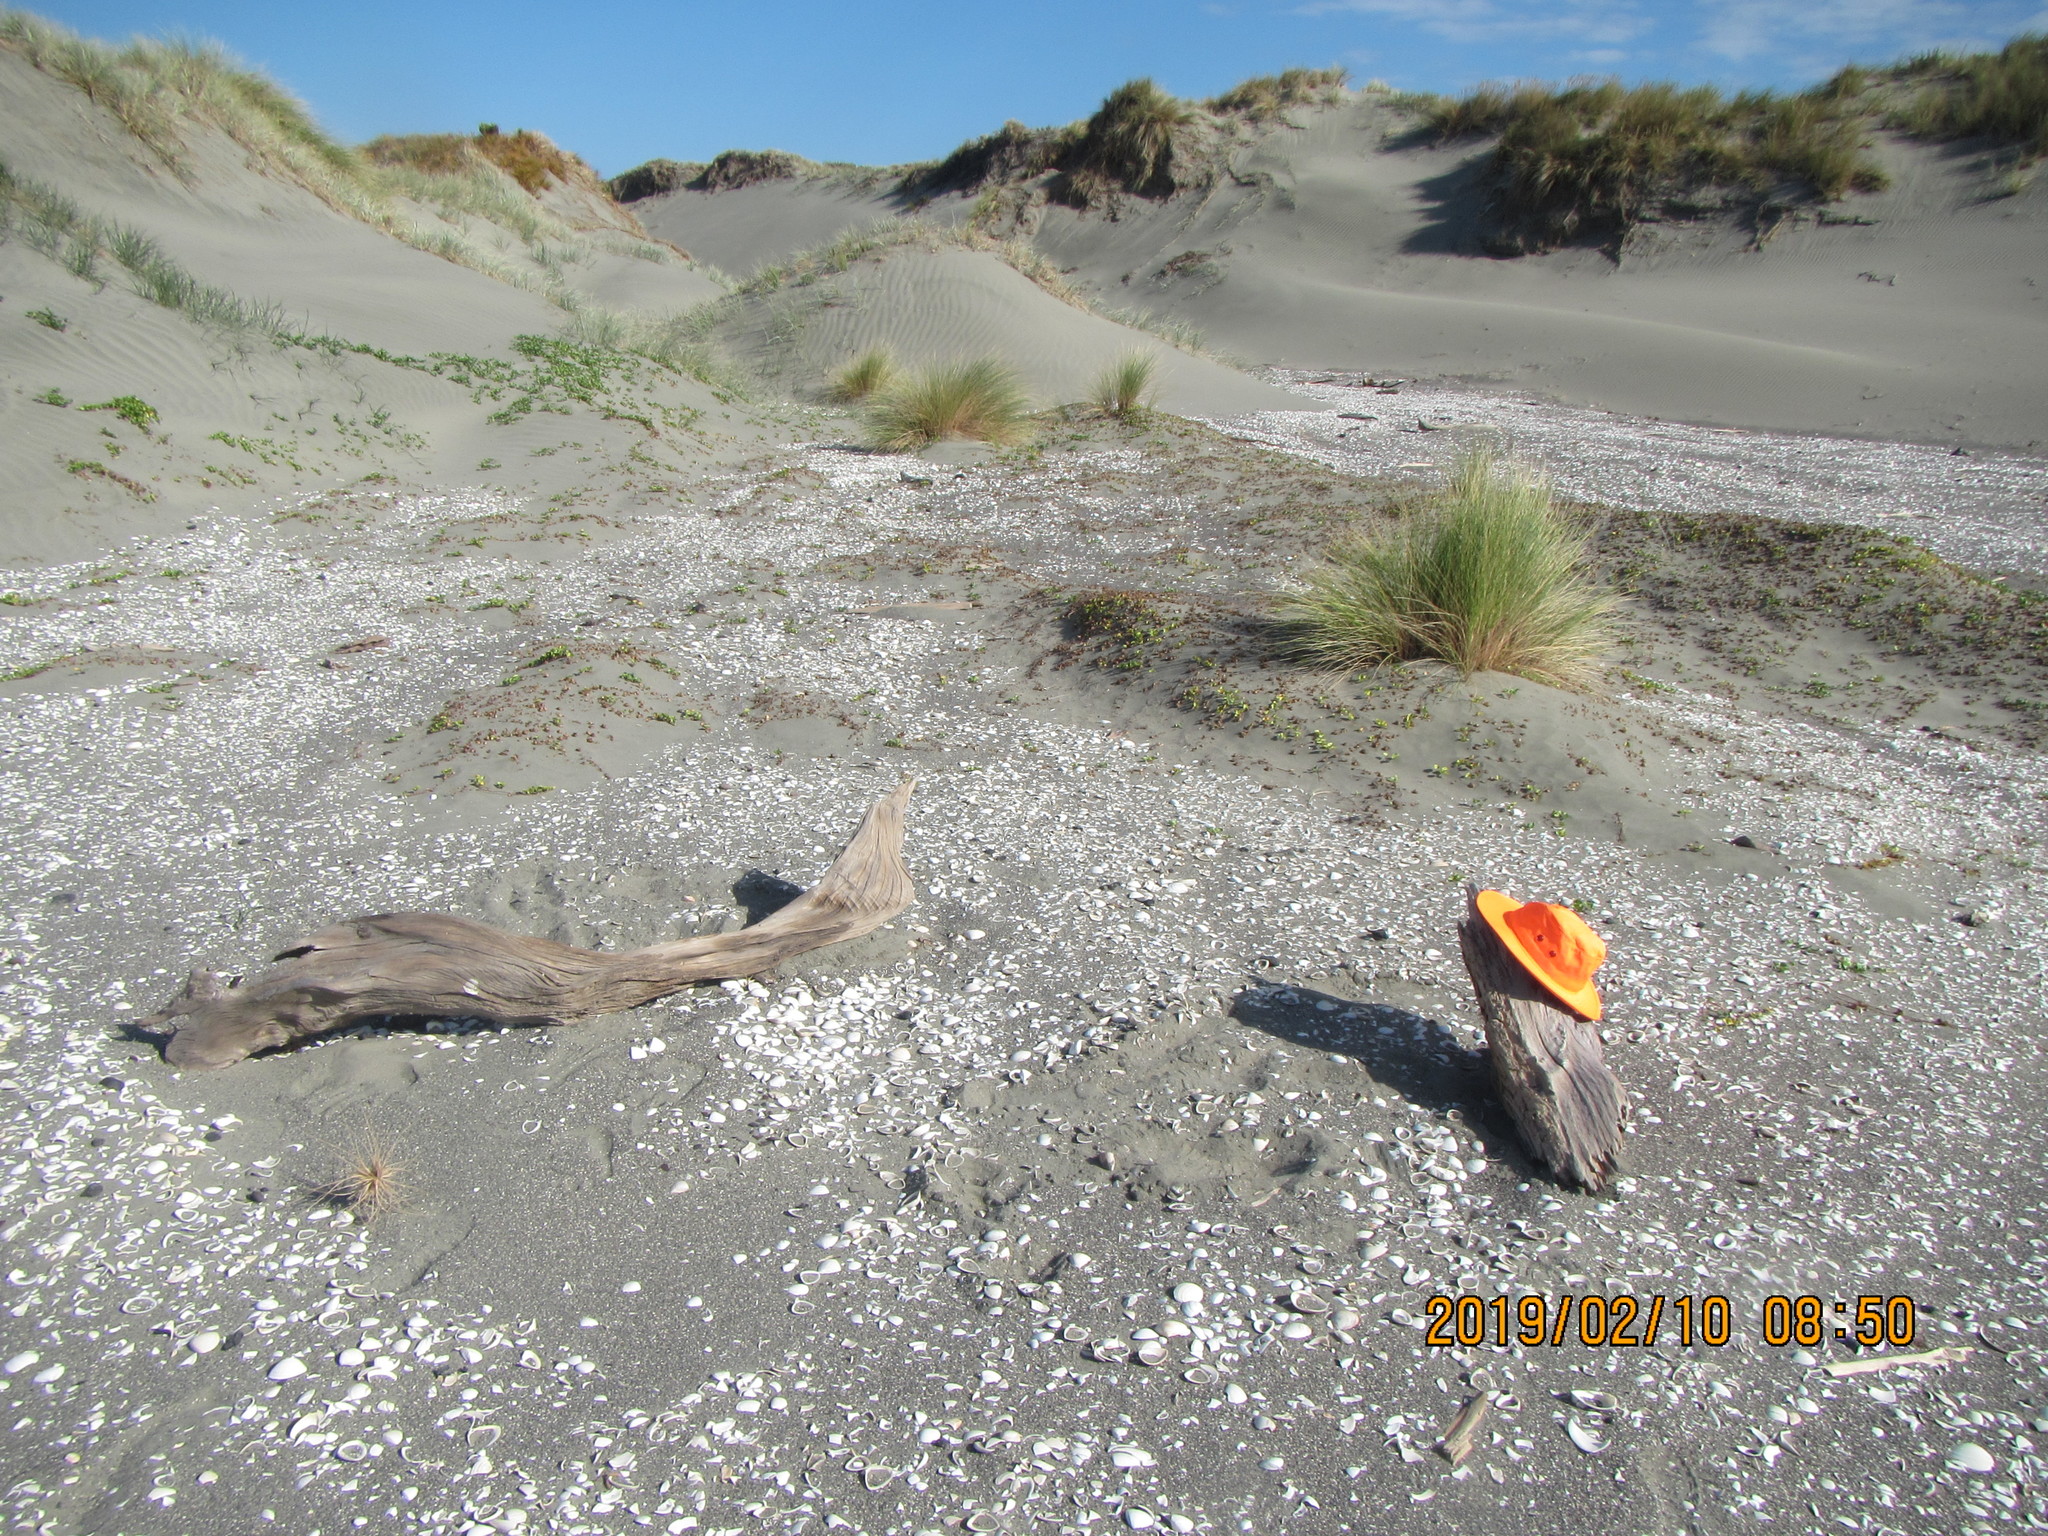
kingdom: Animalia
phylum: Arthropoda
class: Arachnida
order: Araneae
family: Theridiidae
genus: Steatoda
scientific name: Steatoda capensis
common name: Cobweb weaver
